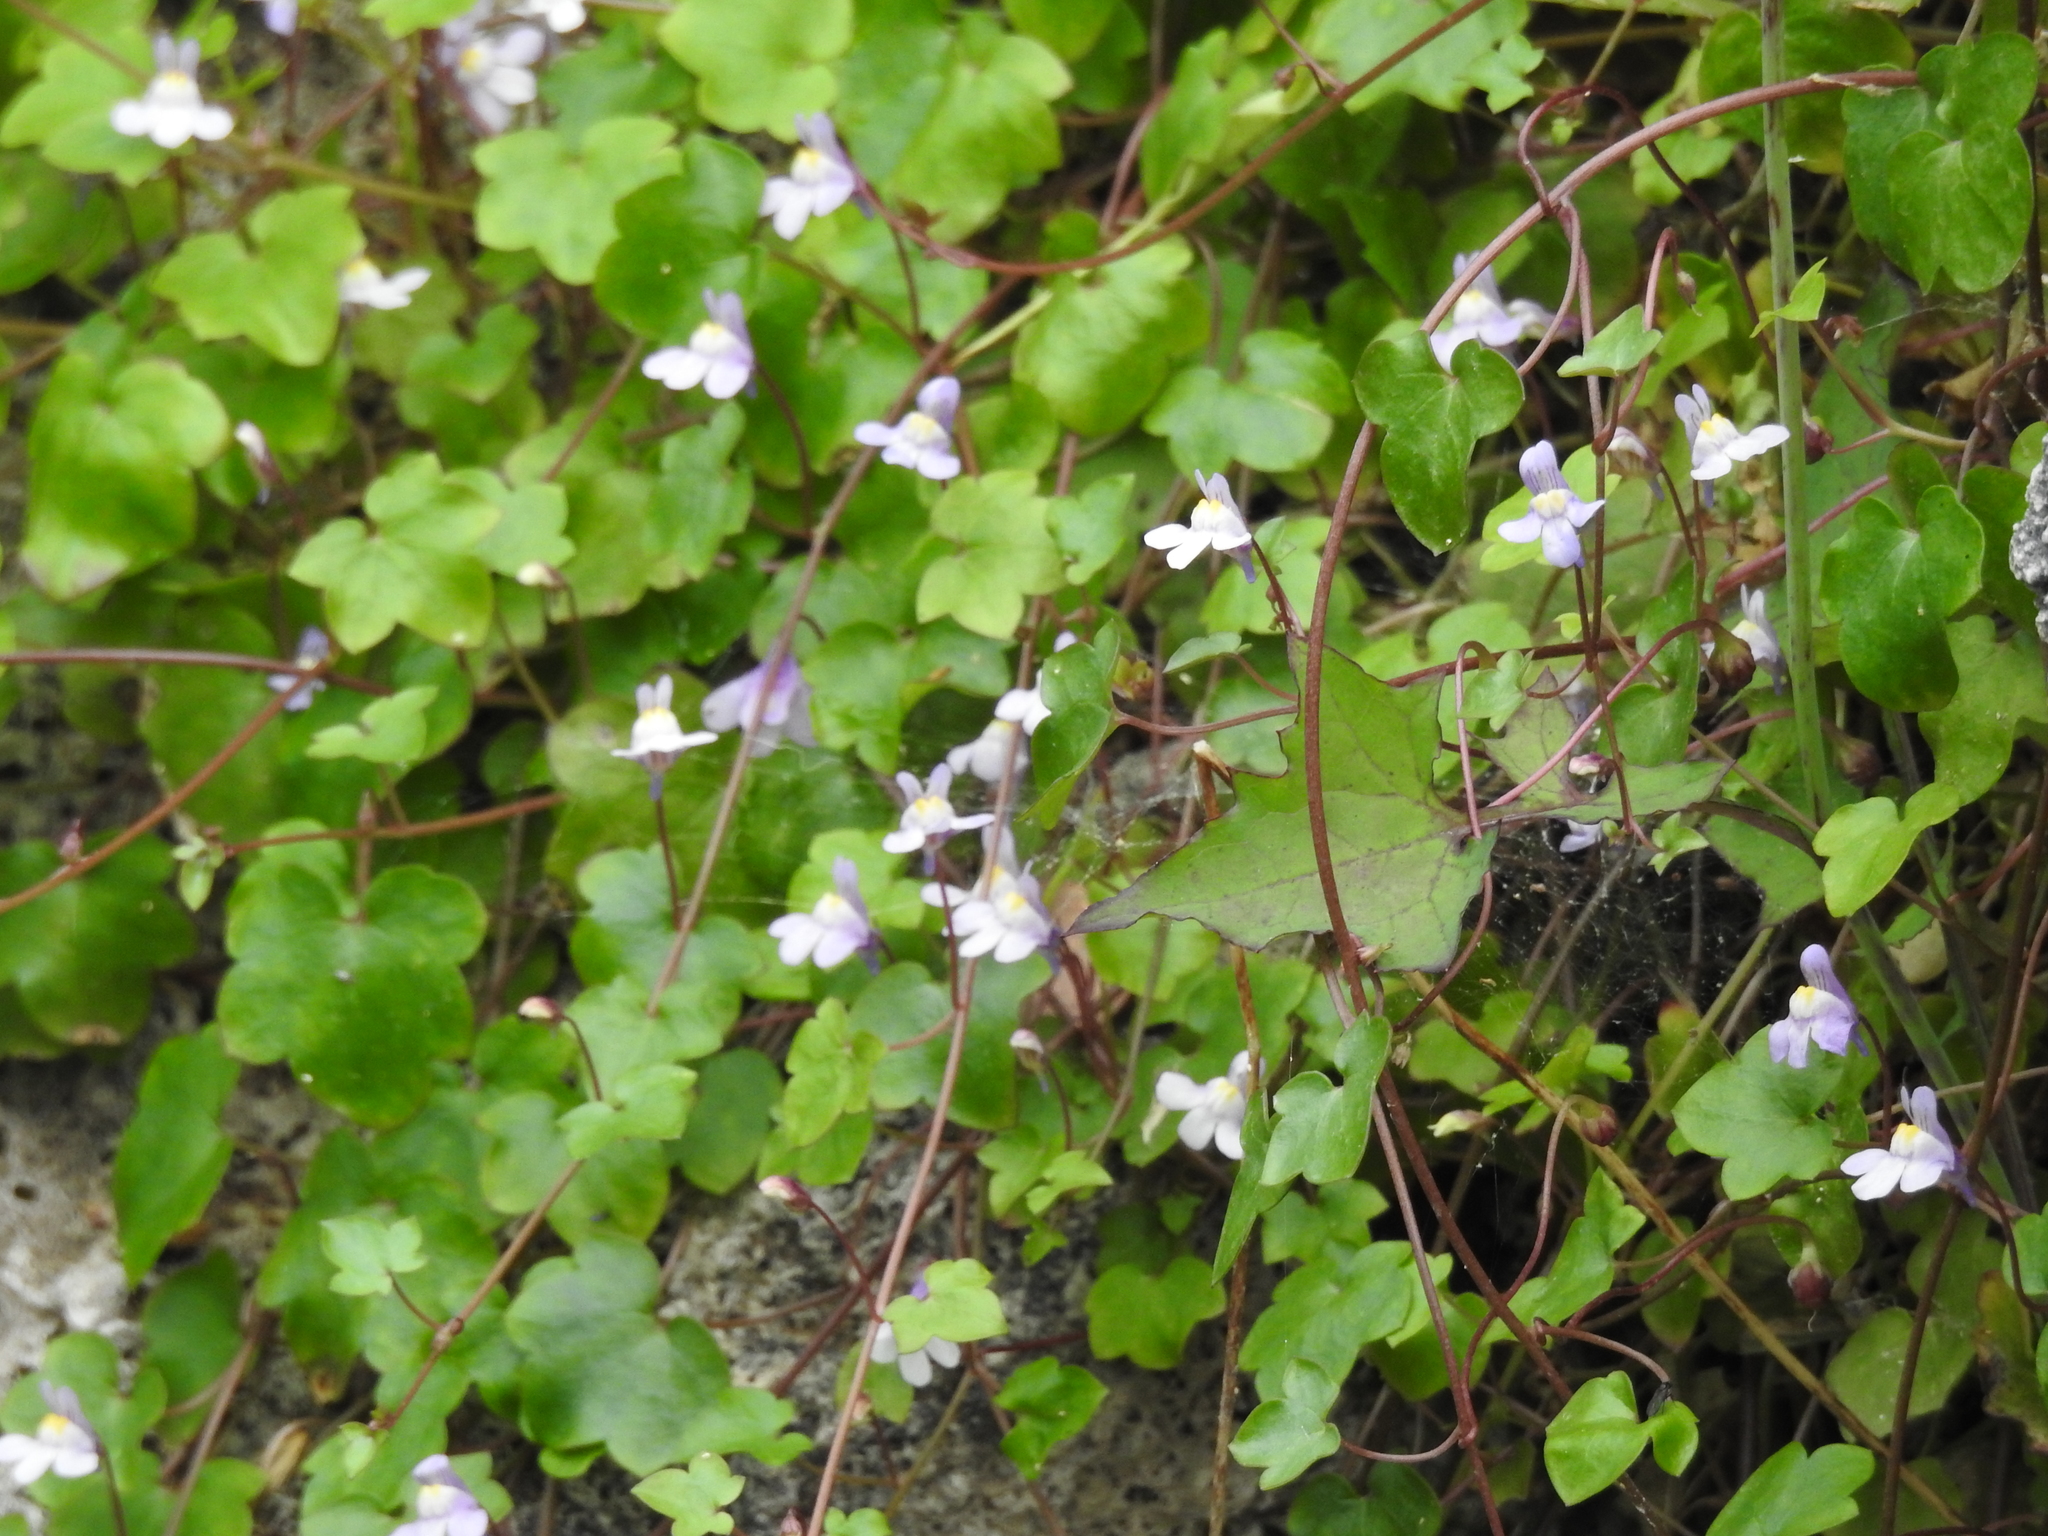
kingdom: Plantae
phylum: Tracheophyta
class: Magnoliopsida
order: Lamiales
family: Plantaginaceae
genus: Cymbalaria
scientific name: Cymbalaria muralis
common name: Ivy-leaved toadflax
